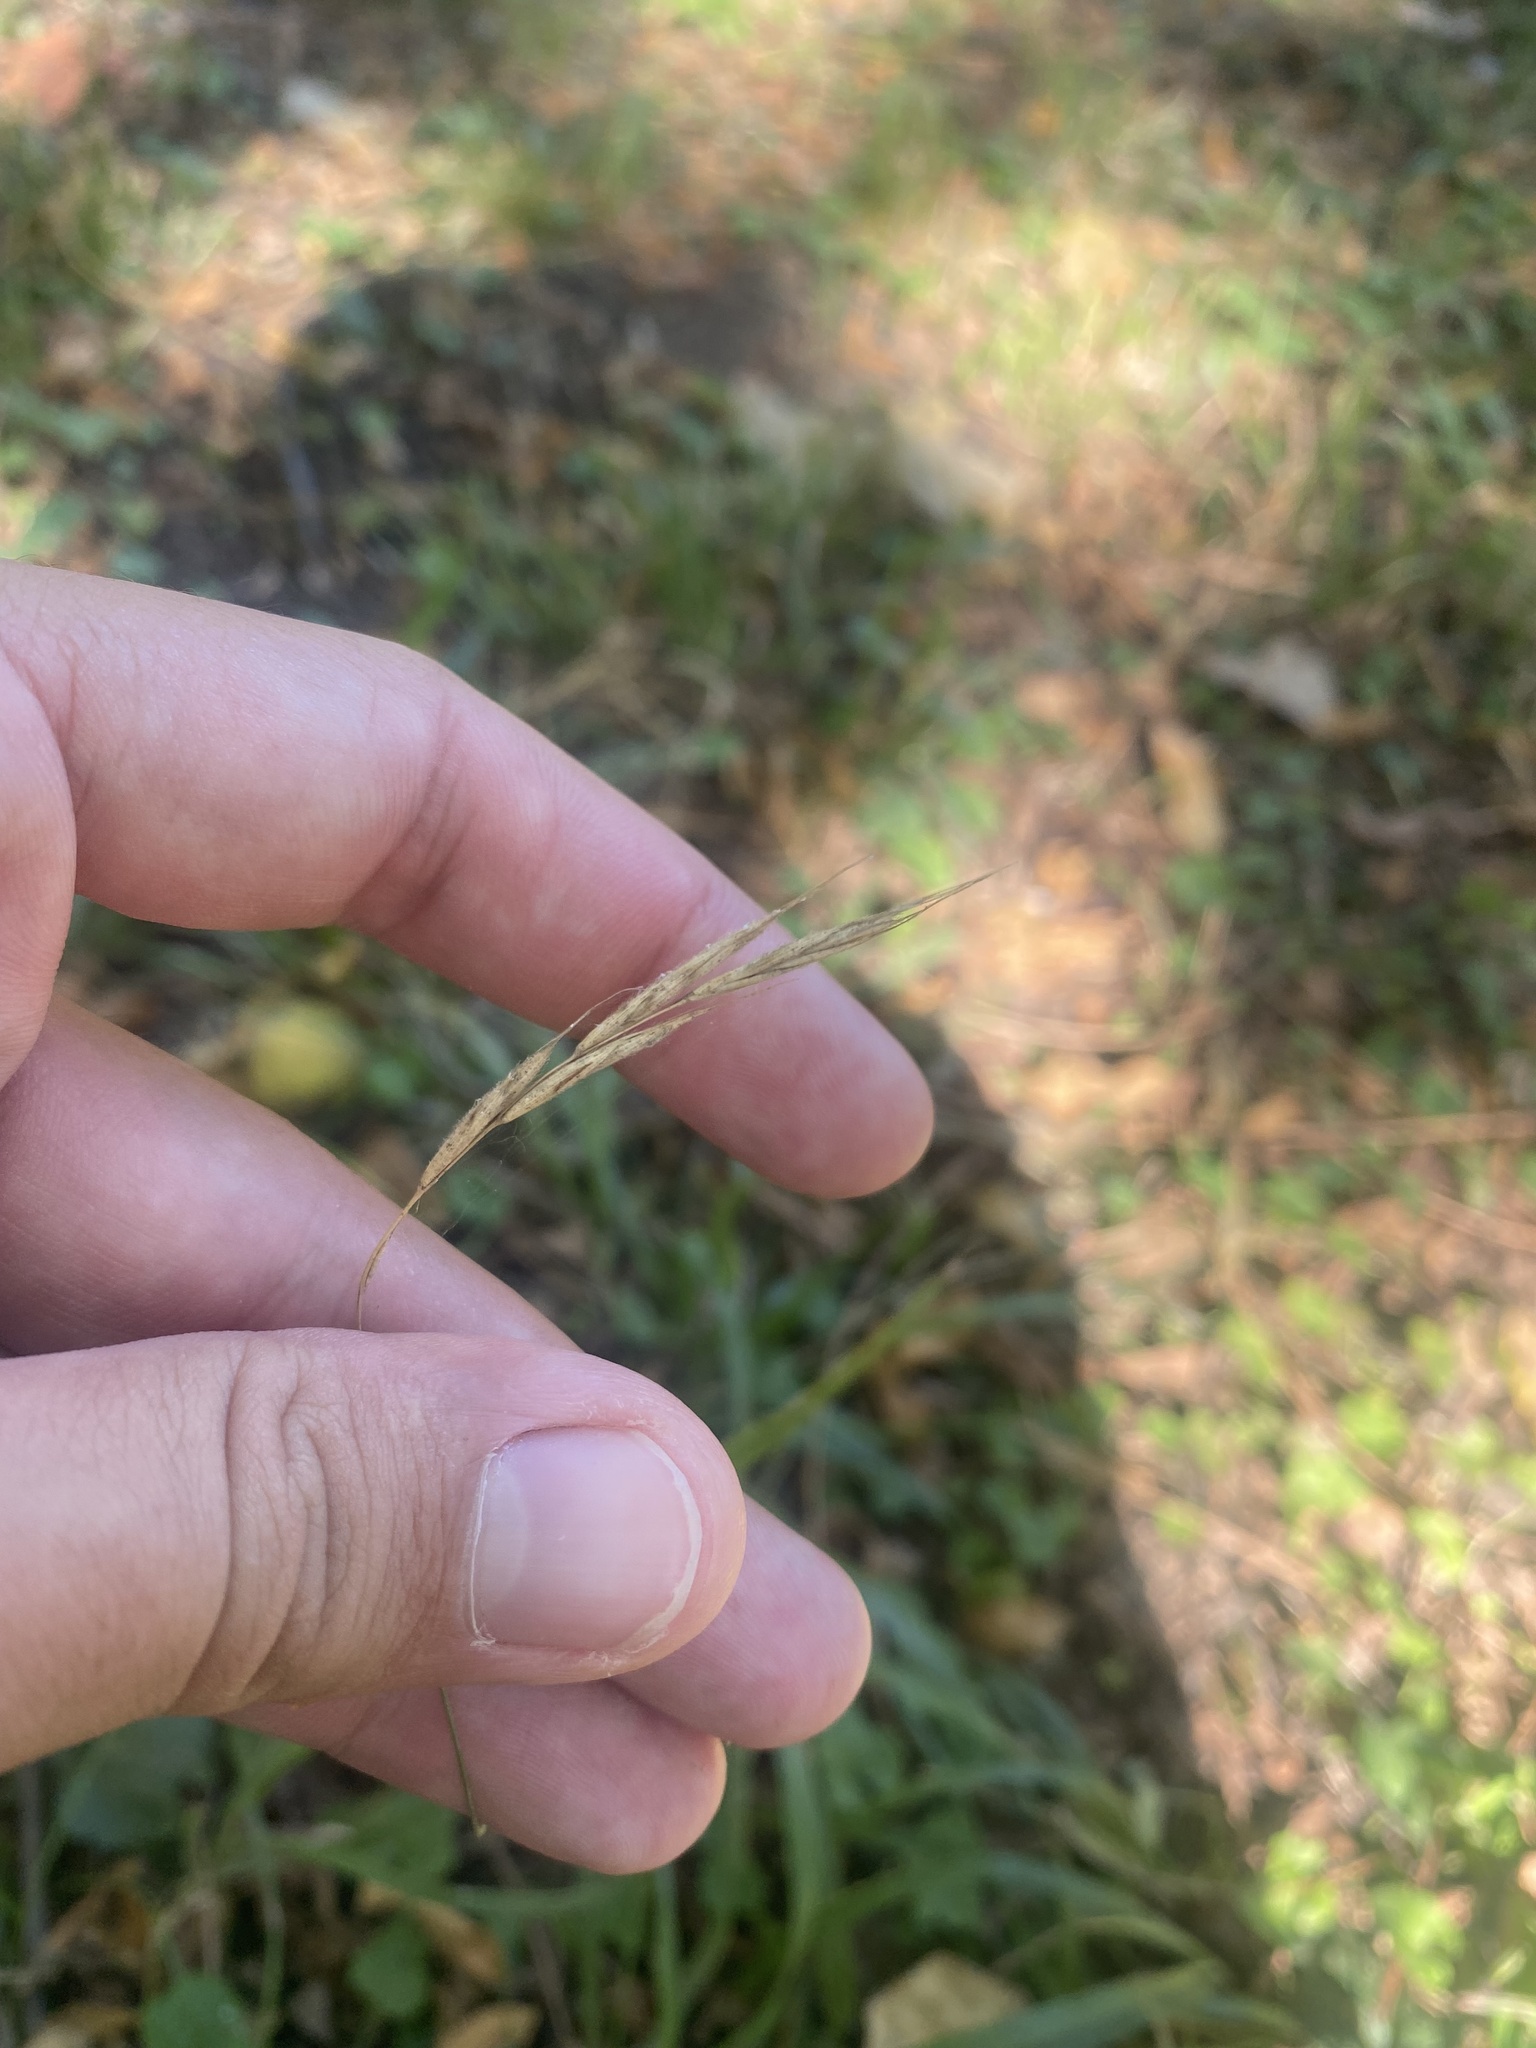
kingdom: Plantae
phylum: Tracheophyta
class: Liliopsida
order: Poales
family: Poaceae
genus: Brachypodium
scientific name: Brachypodium
